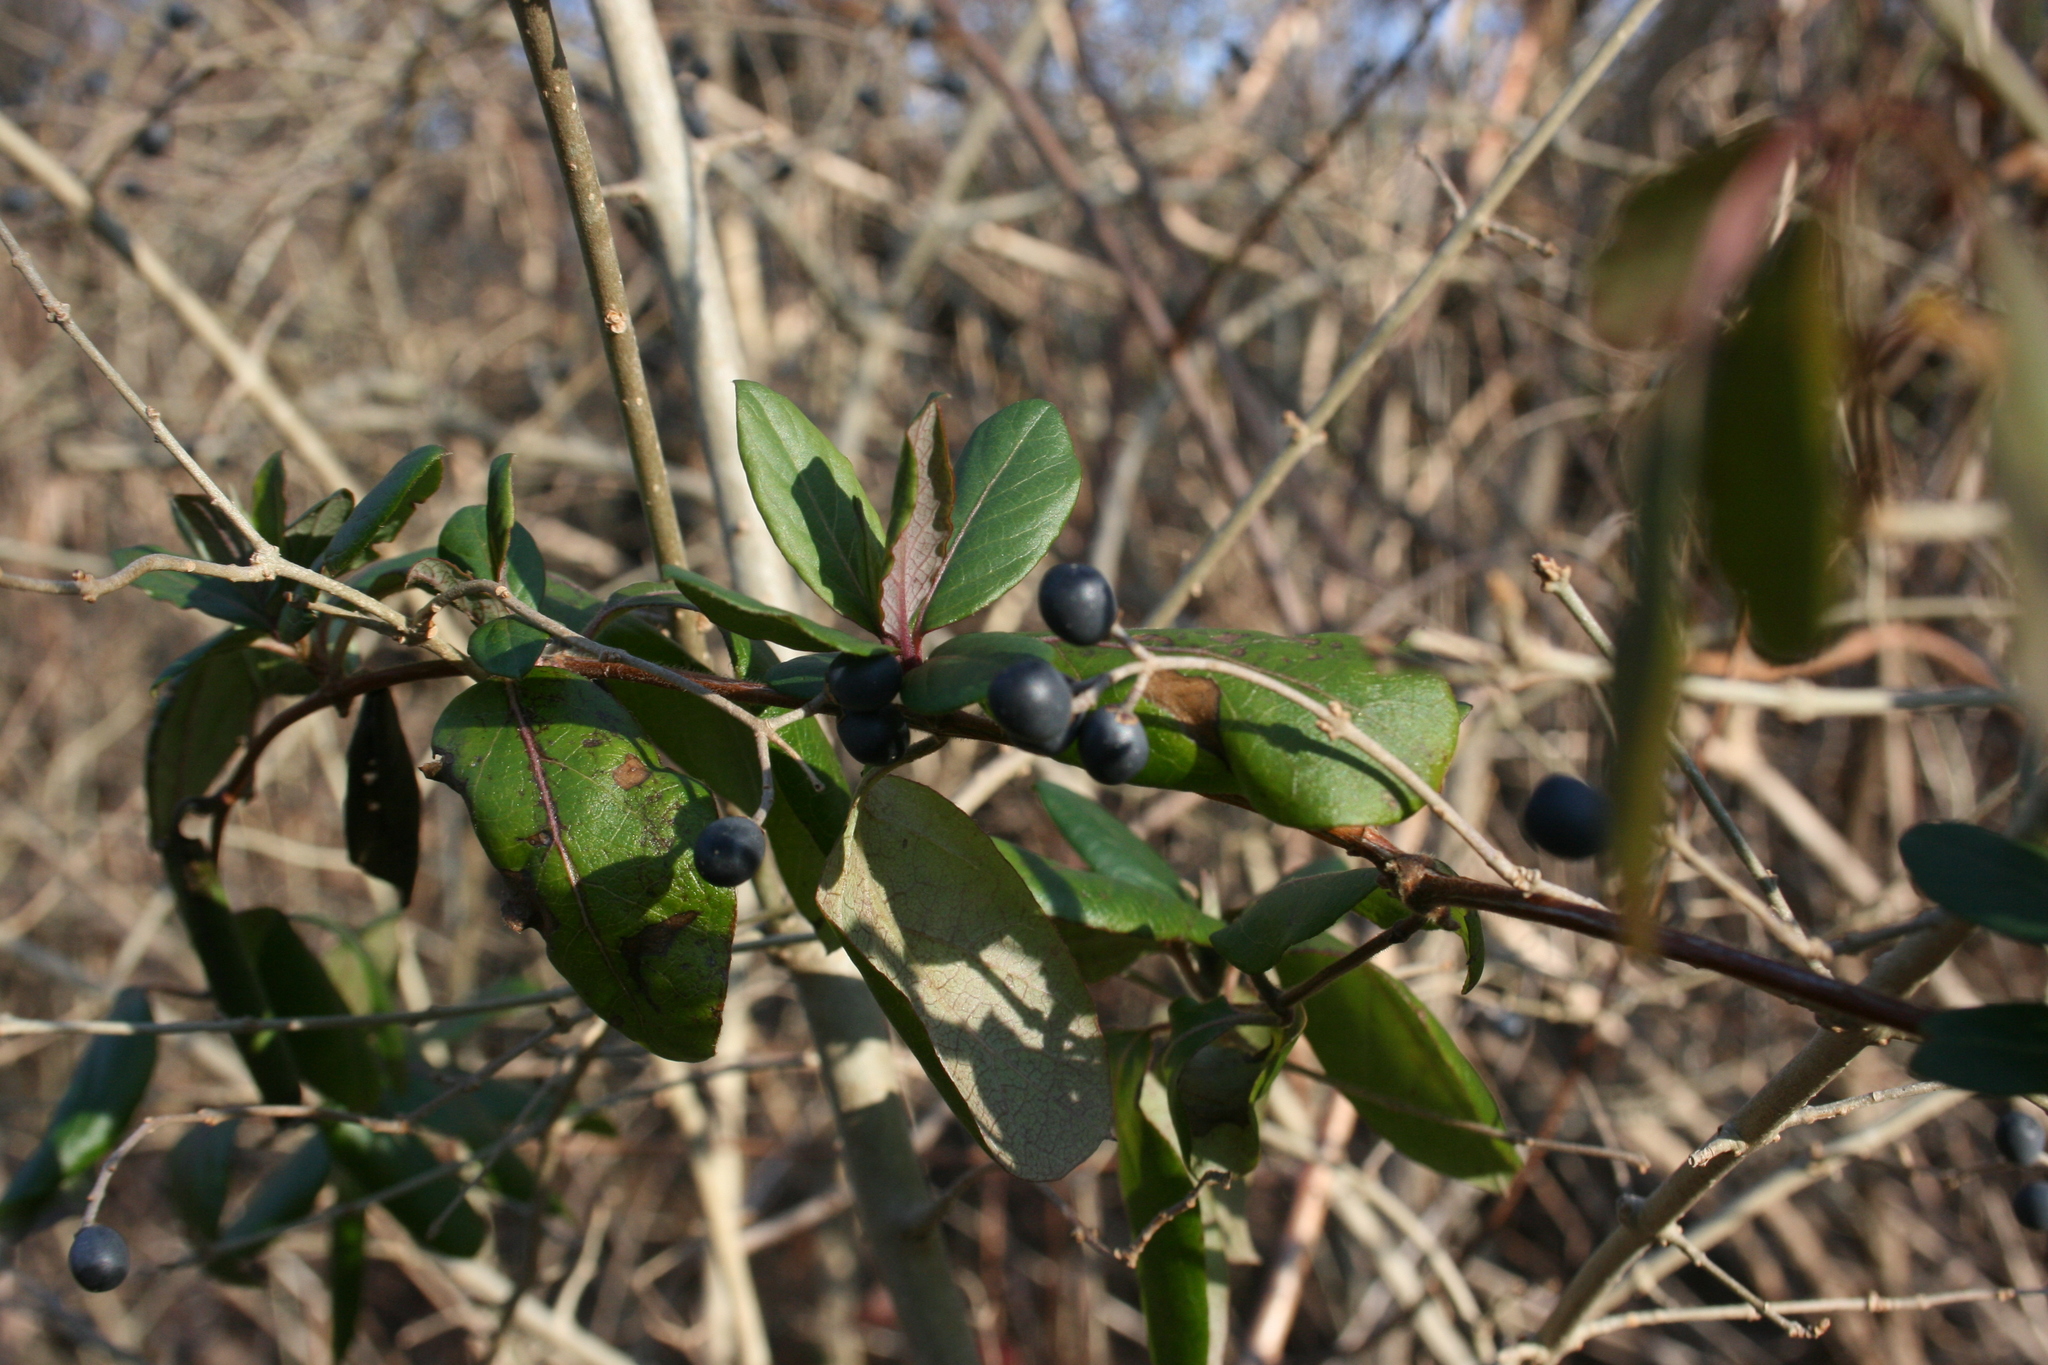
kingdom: Plantae
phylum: Tracheophyta
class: Magnoliopsida
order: Lamiales
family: Oleaceae
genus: Ligustrum
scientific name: Ligustrum obtusifolium
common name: Border privet
